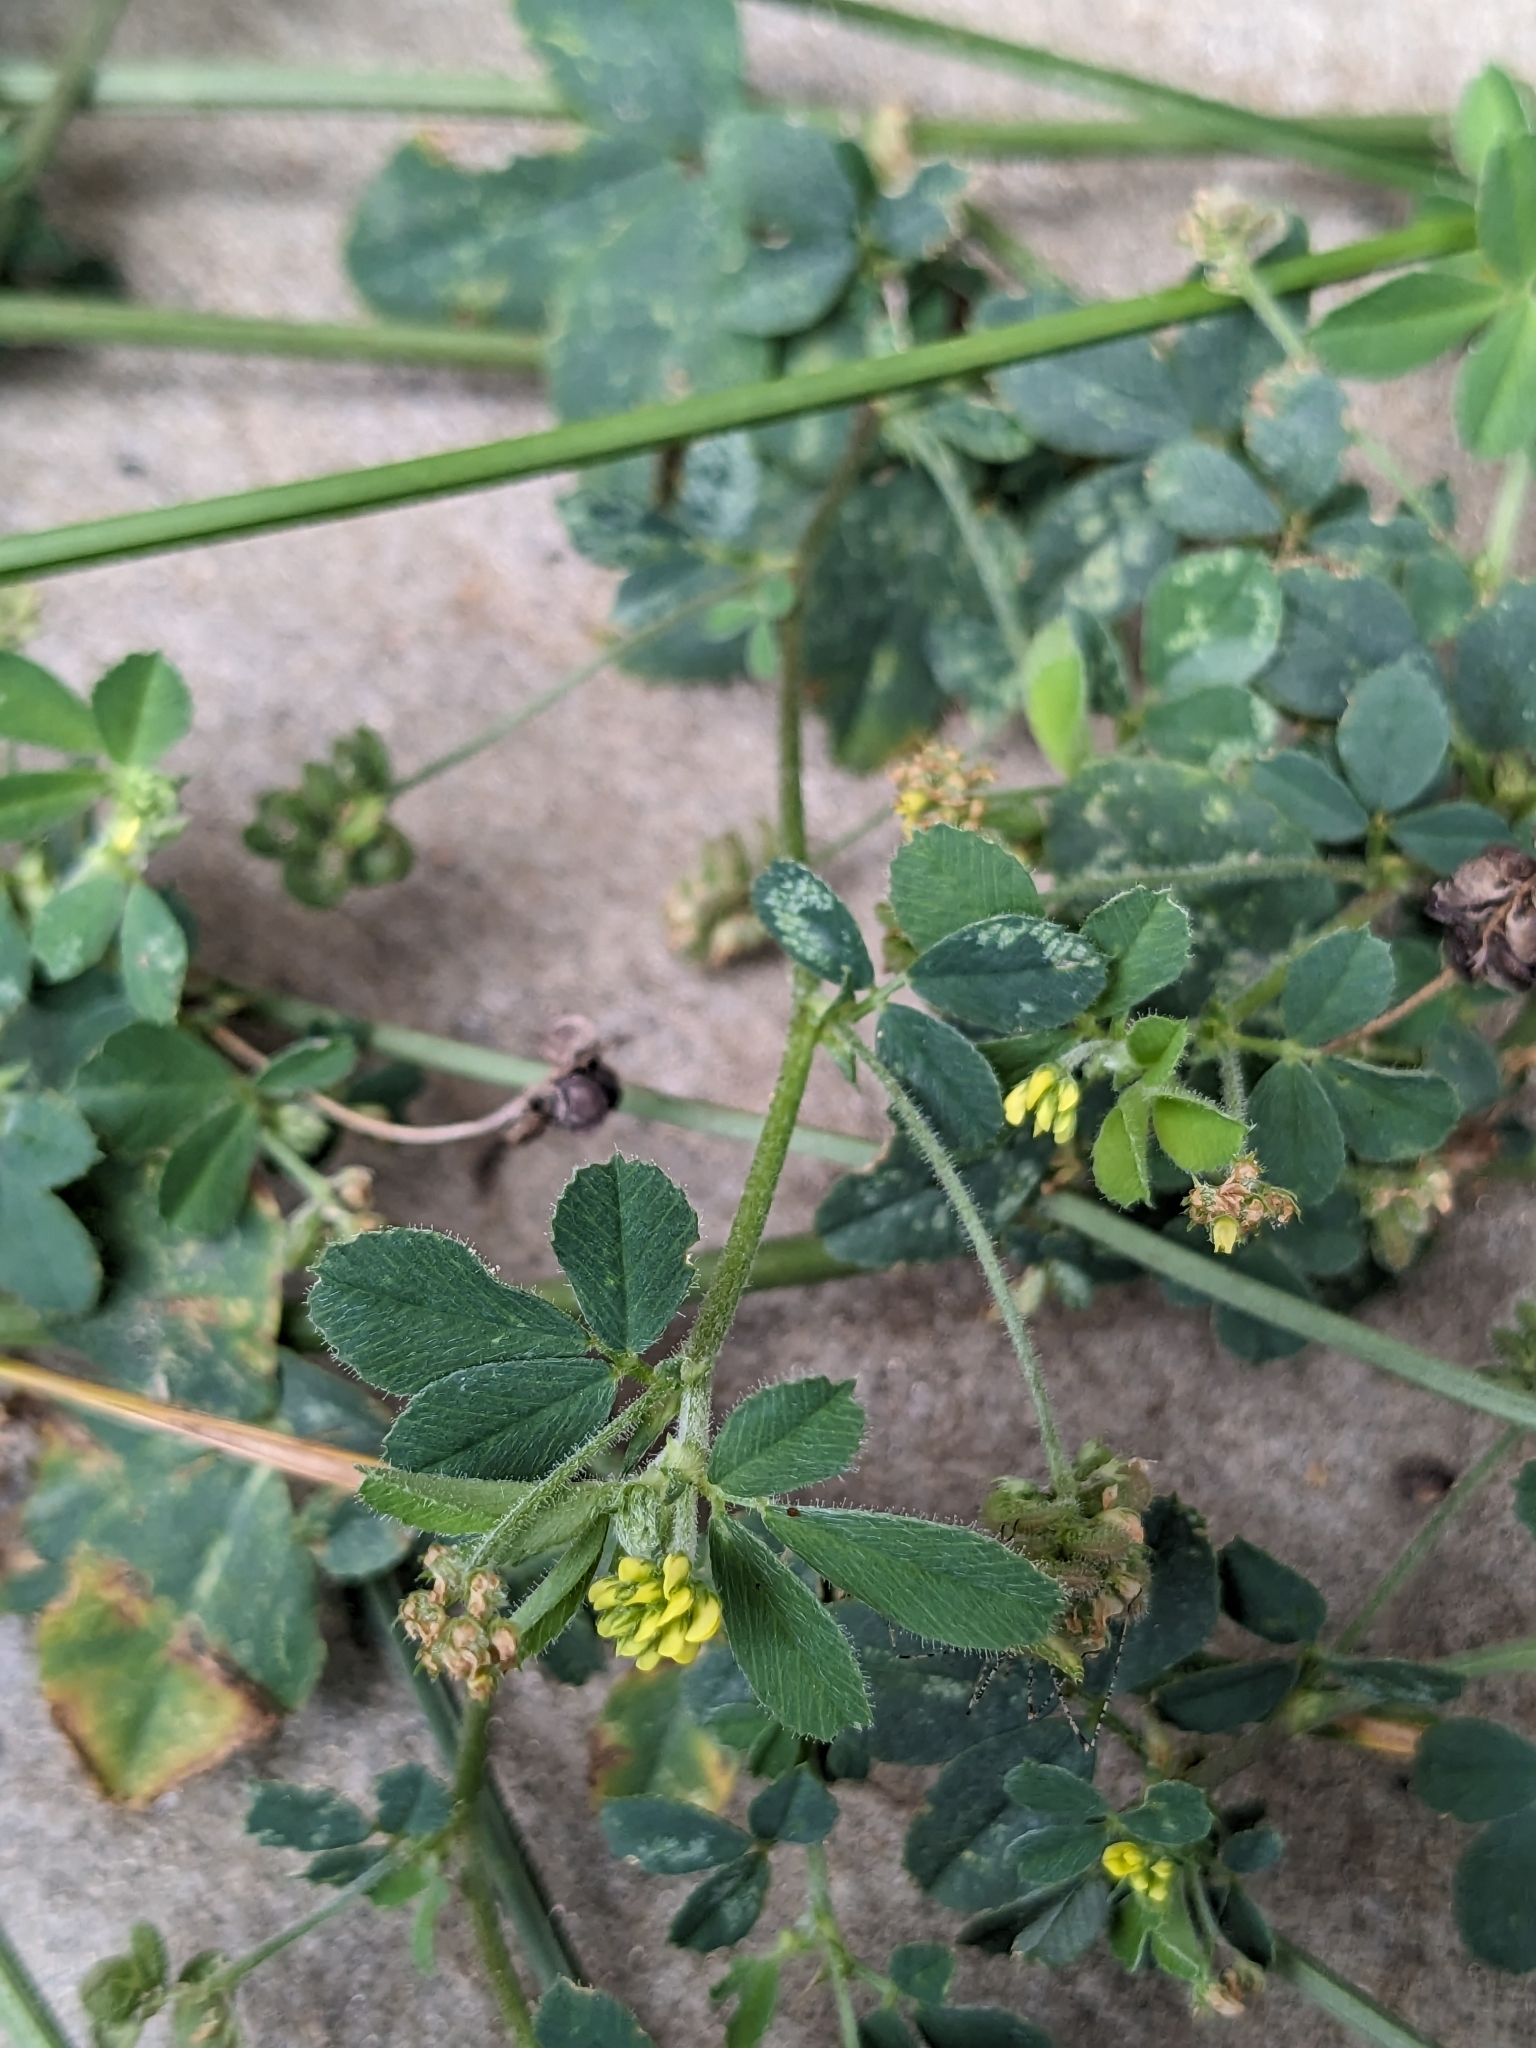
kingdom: Plantae
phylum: Tracheophyta
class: Magnoliopsida
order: Fabales
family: Fabaceae
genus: Medicago
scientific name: Medicago lupulina
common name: Black medick
